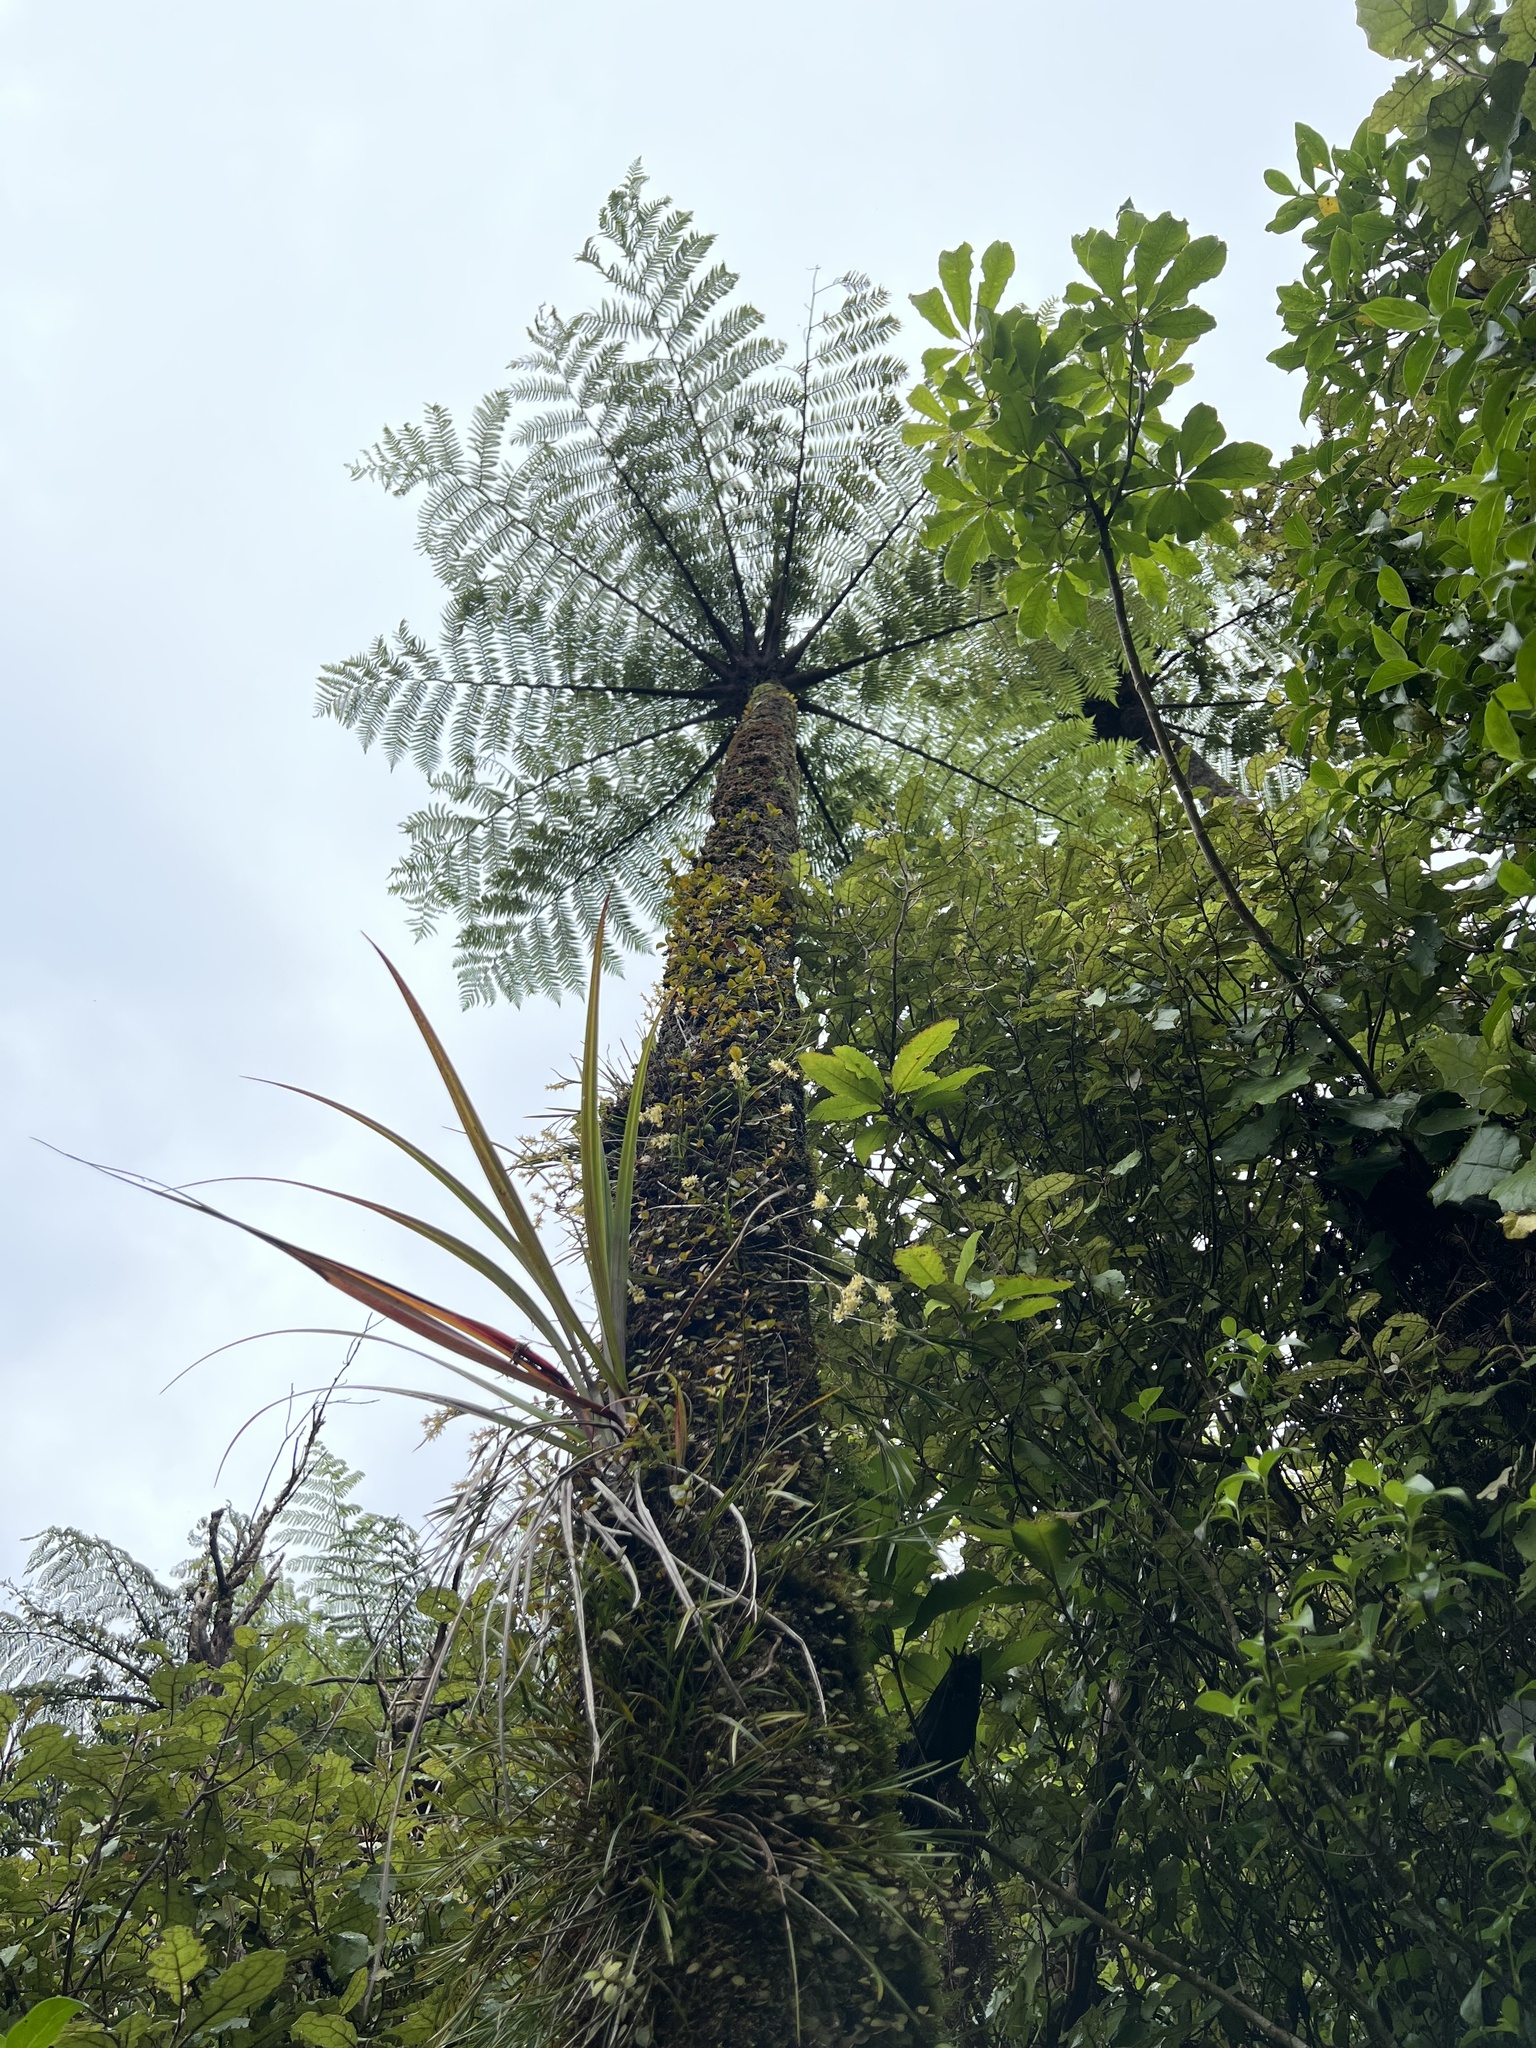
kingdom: Plantae
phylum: Tracheophyta
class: Polypodiopsida
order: Cyatheales
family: Cyatheaceae
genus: Sphaeropteris
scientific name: Sphaeropteris medullaris
